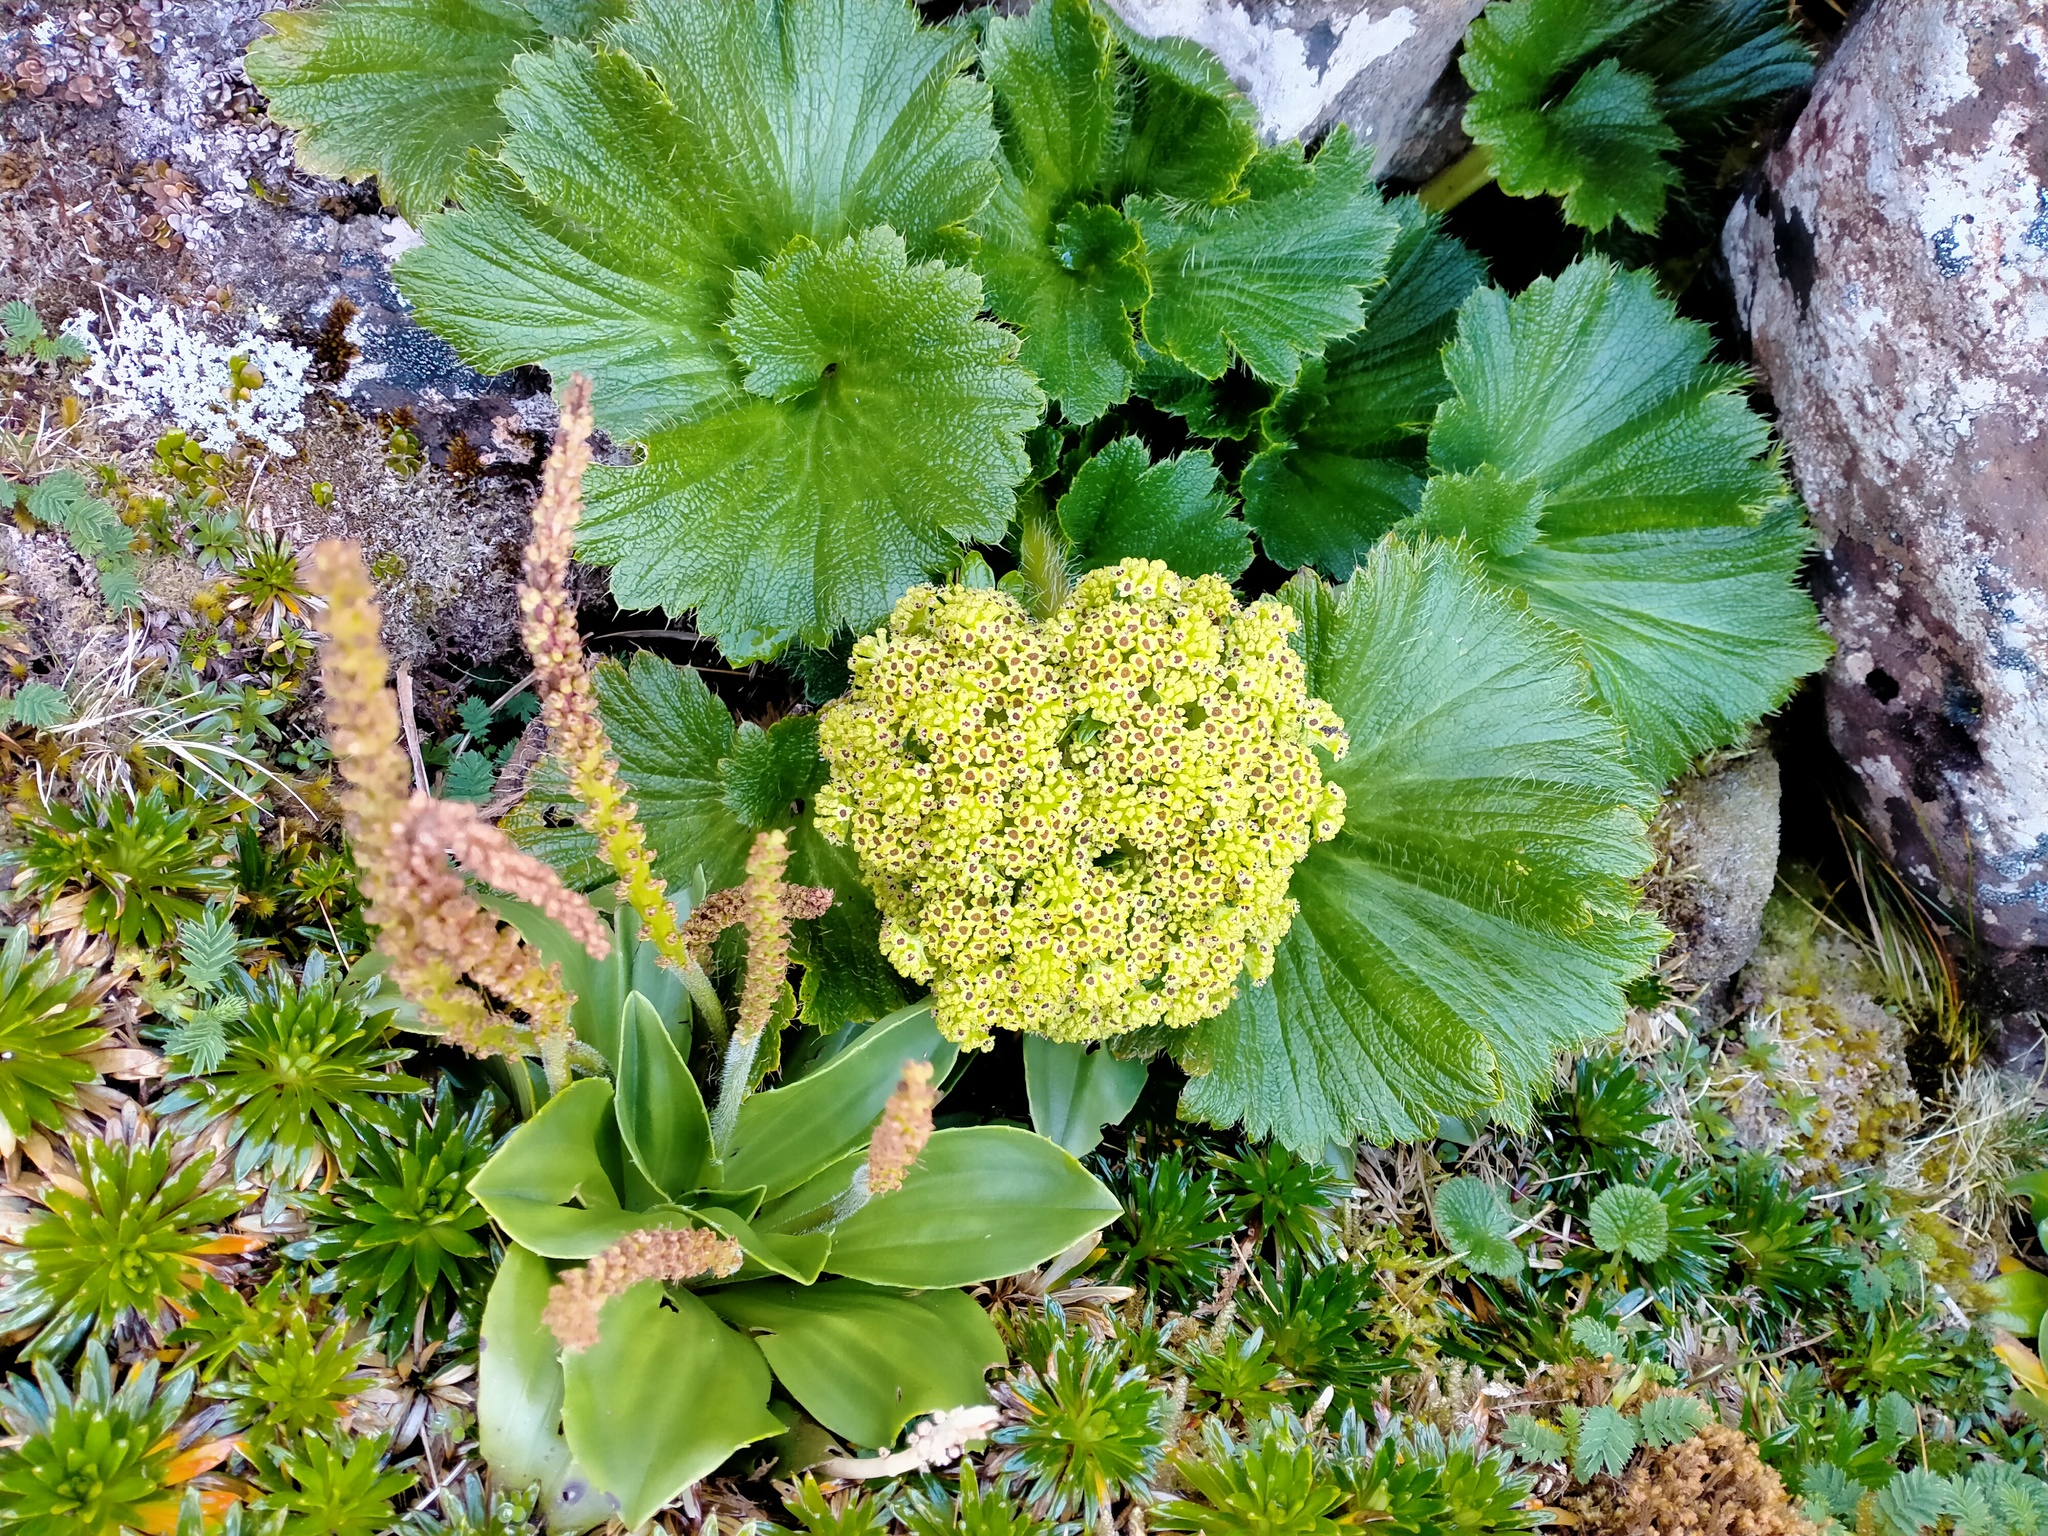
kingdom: Plantae
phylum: Tracheophyta
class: Magnoliopsida
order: Apiales
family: Apiaceae
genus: Azorella
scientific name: Azorella polaris
